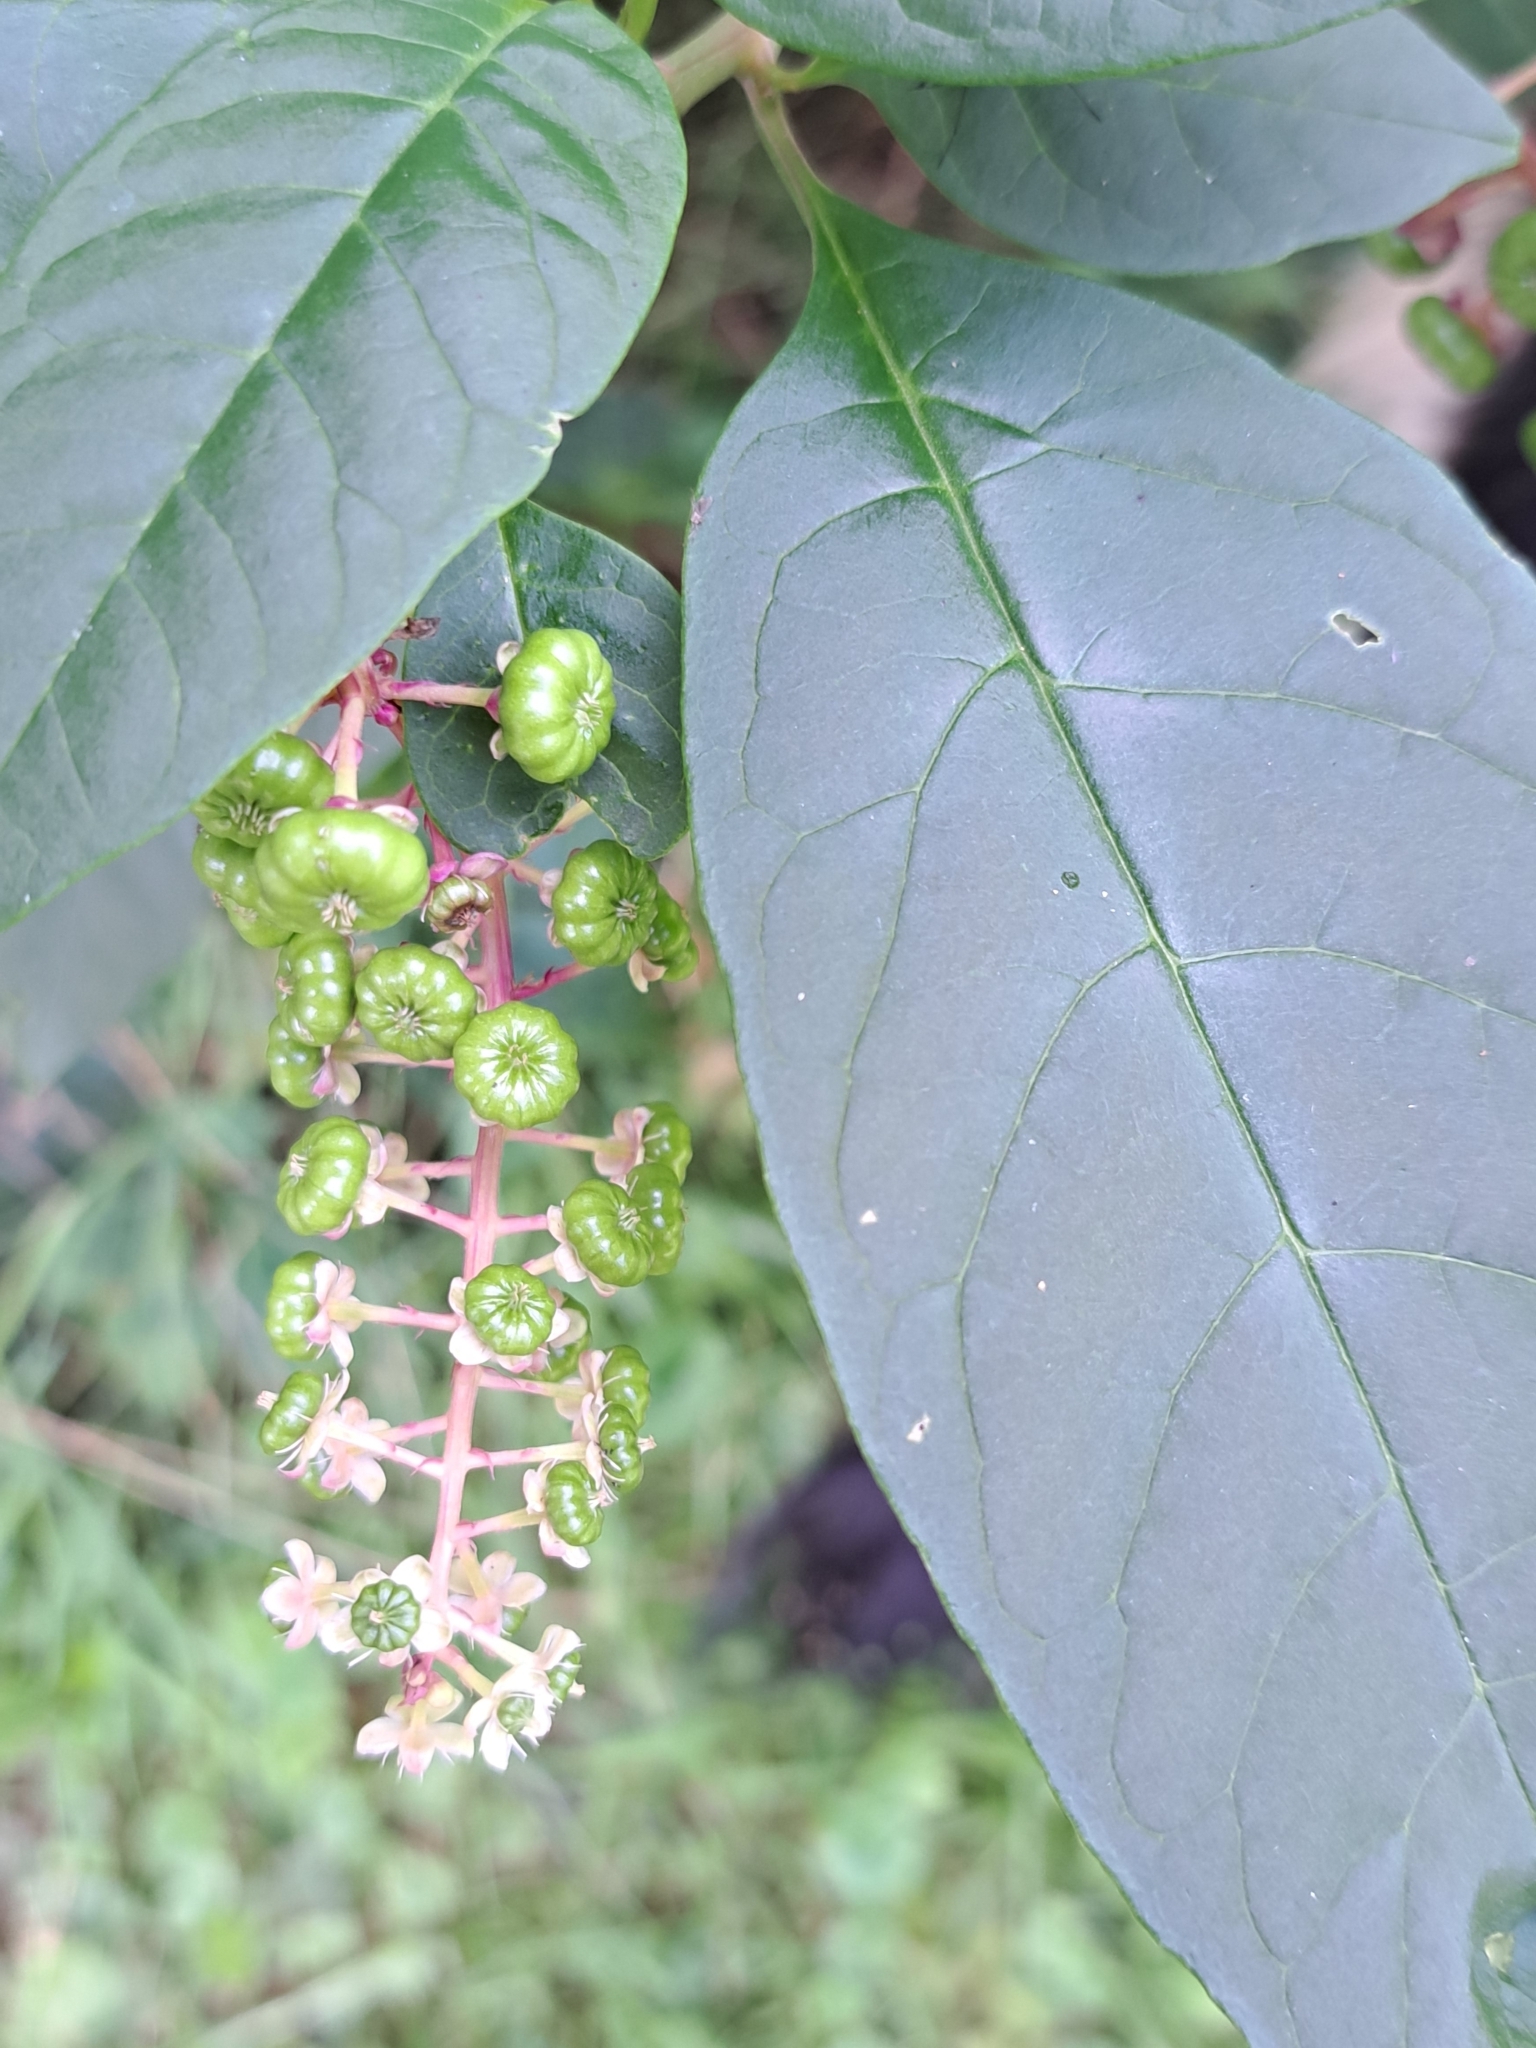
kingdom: Plantae
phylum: Tracheophyta
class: Magnoliopsida
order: Caryophyllales
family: Phytolaccaceae
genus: Phytolacca
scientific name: Phytolacca americana
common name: American pokeweed
